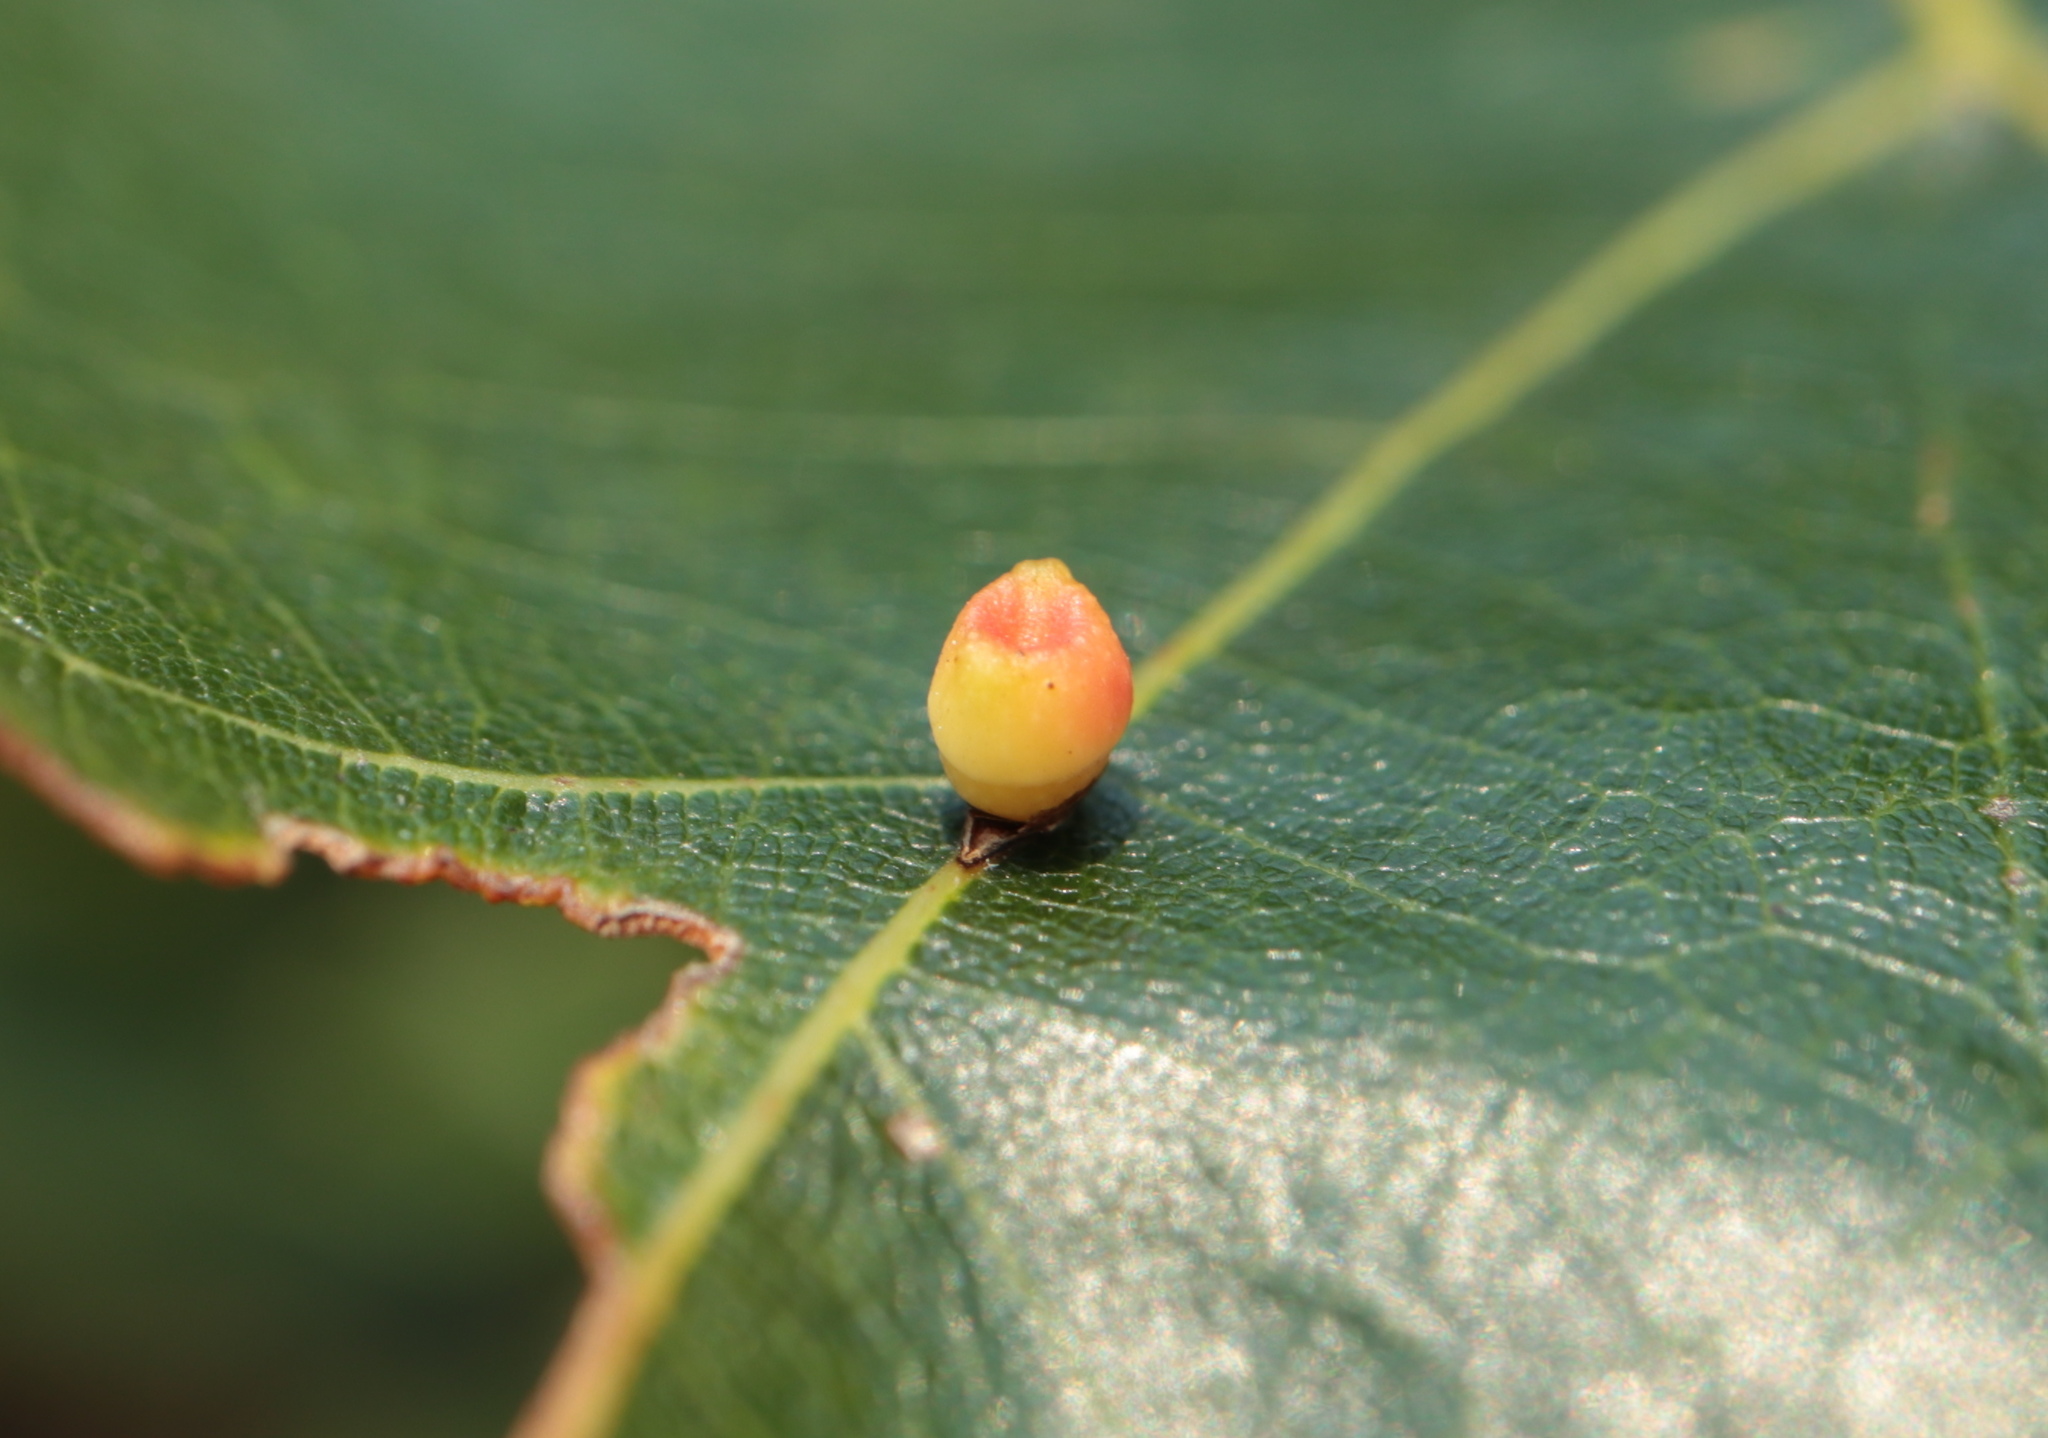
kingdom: Animalia
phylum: Arthropoda
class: Insecta
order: Hymenoptera
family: Cynipidae
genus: Kokkocynips
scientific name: Kokkocynips rileyi
